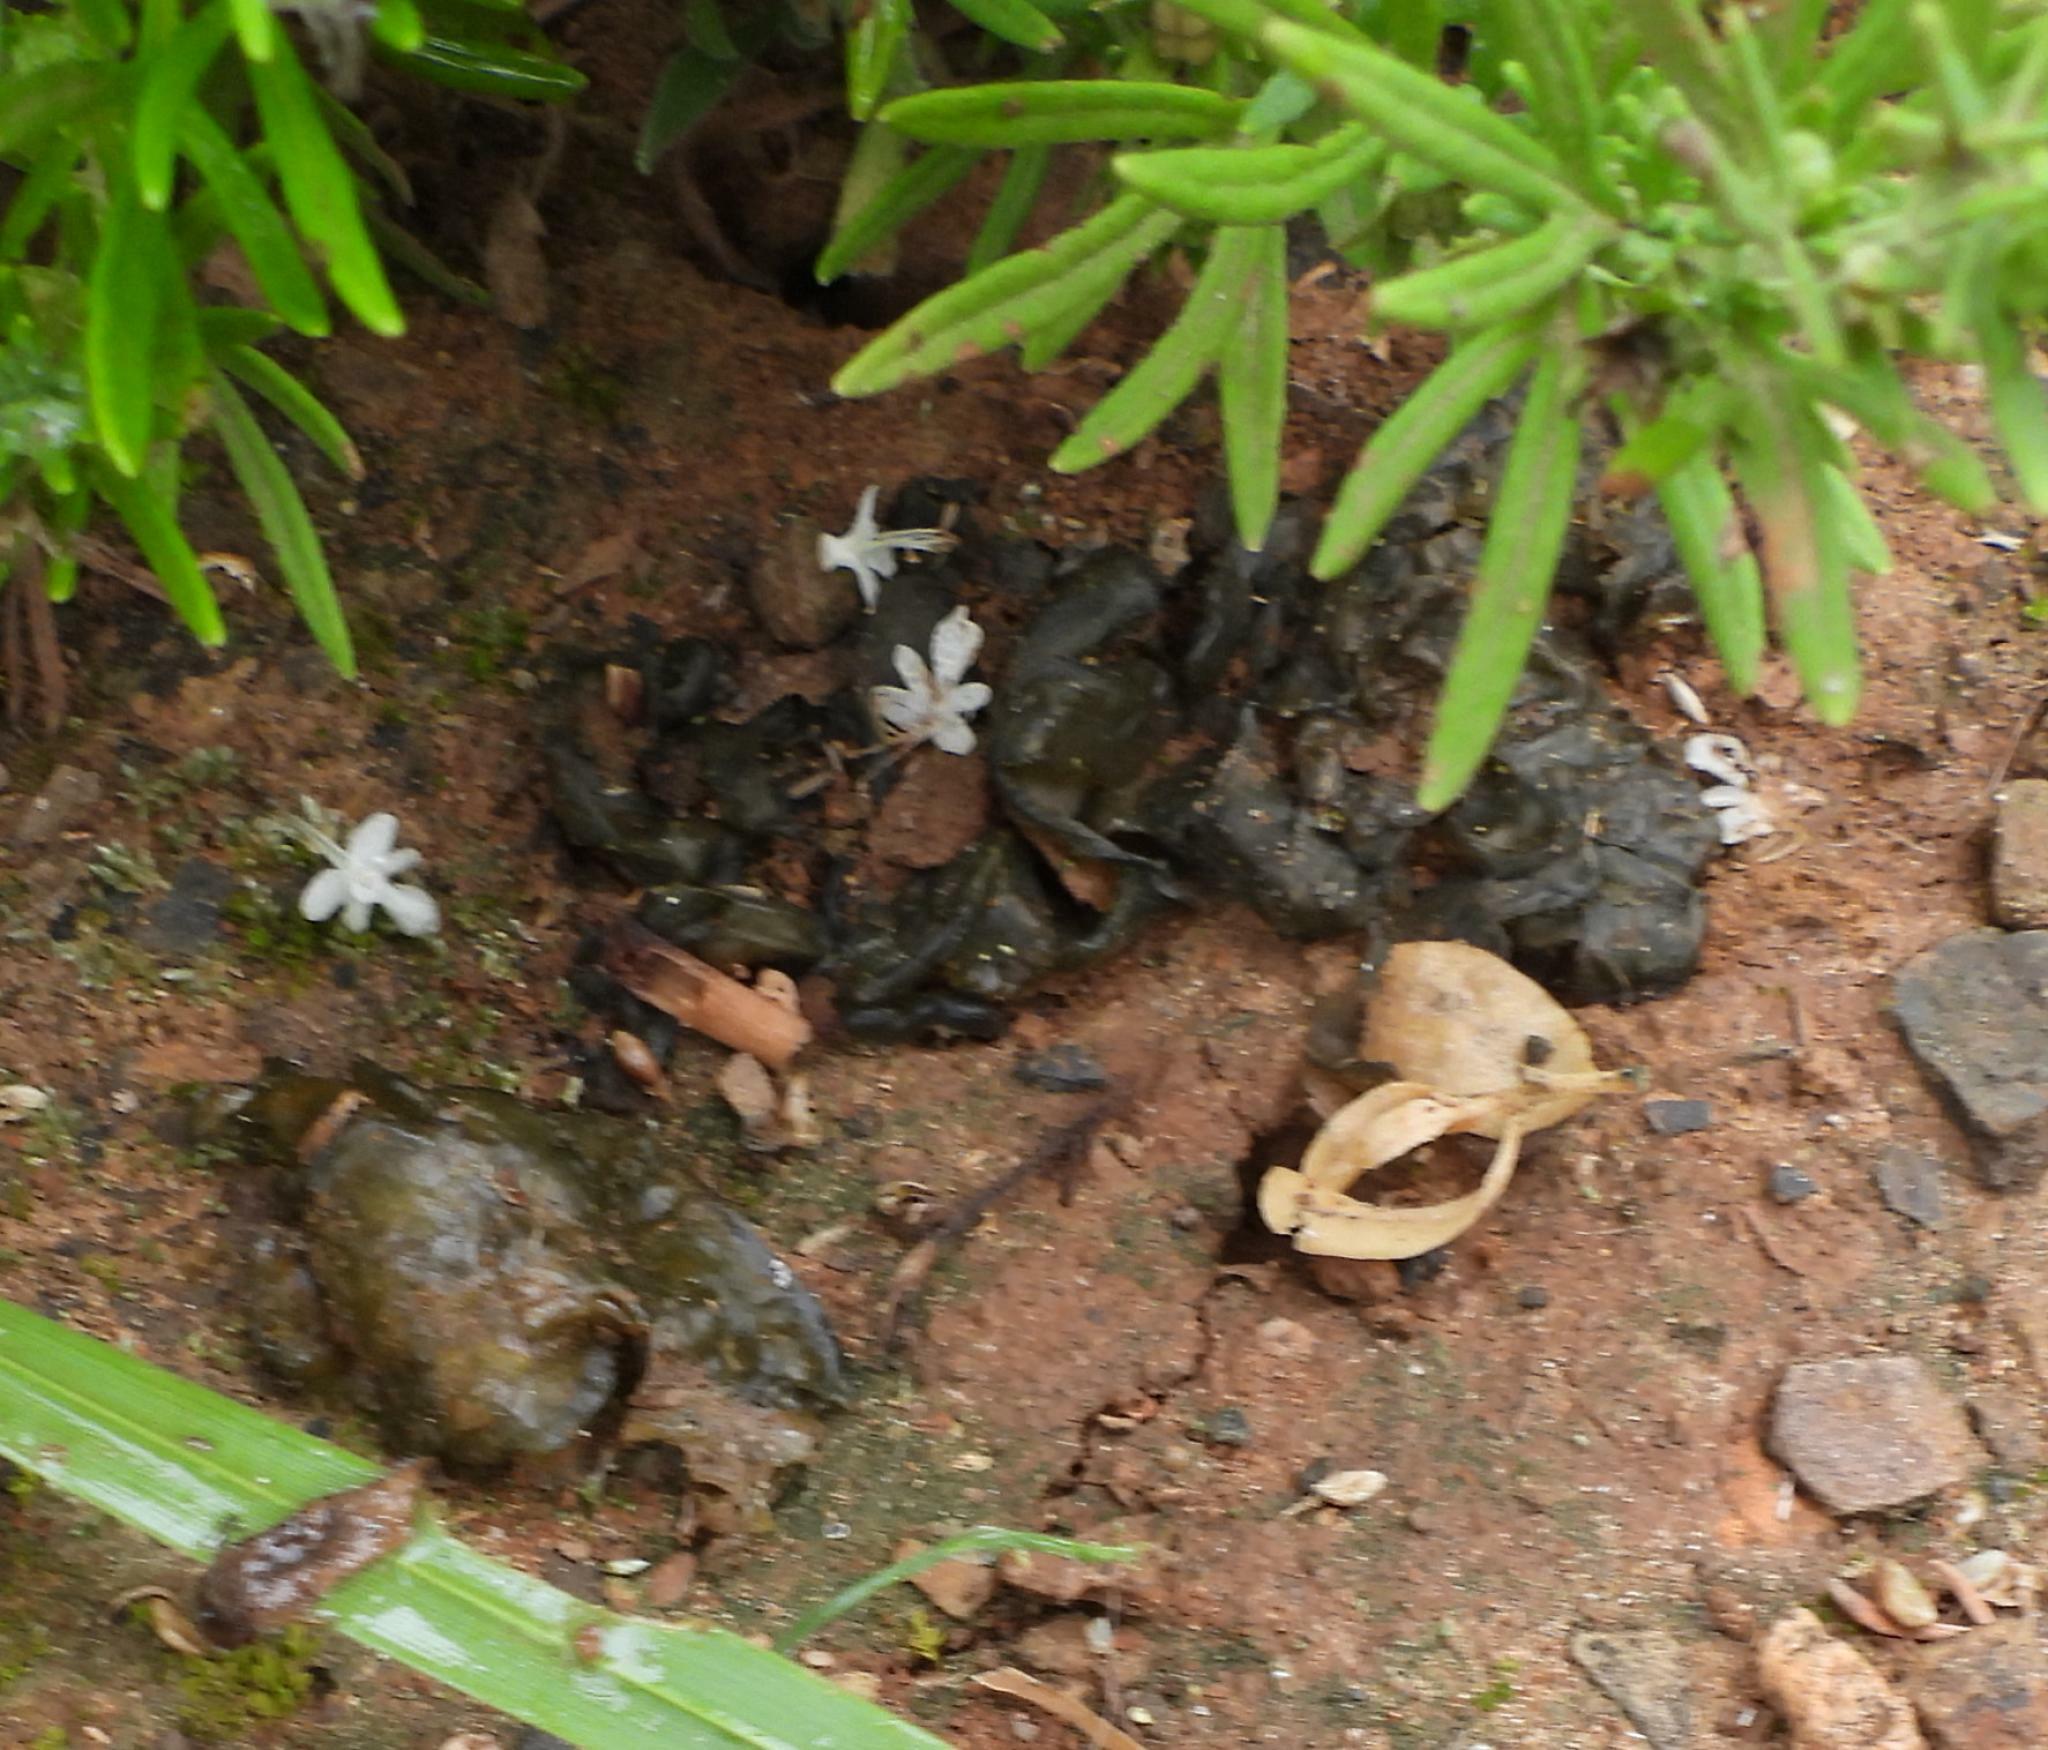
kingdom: Bacteria
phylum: Cyanobacteria
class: Cyanobacteriia
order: Cyanobacteriales
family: Nostocaceae
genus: Nostoc
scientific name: Nostoc commune
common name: Star jelly
